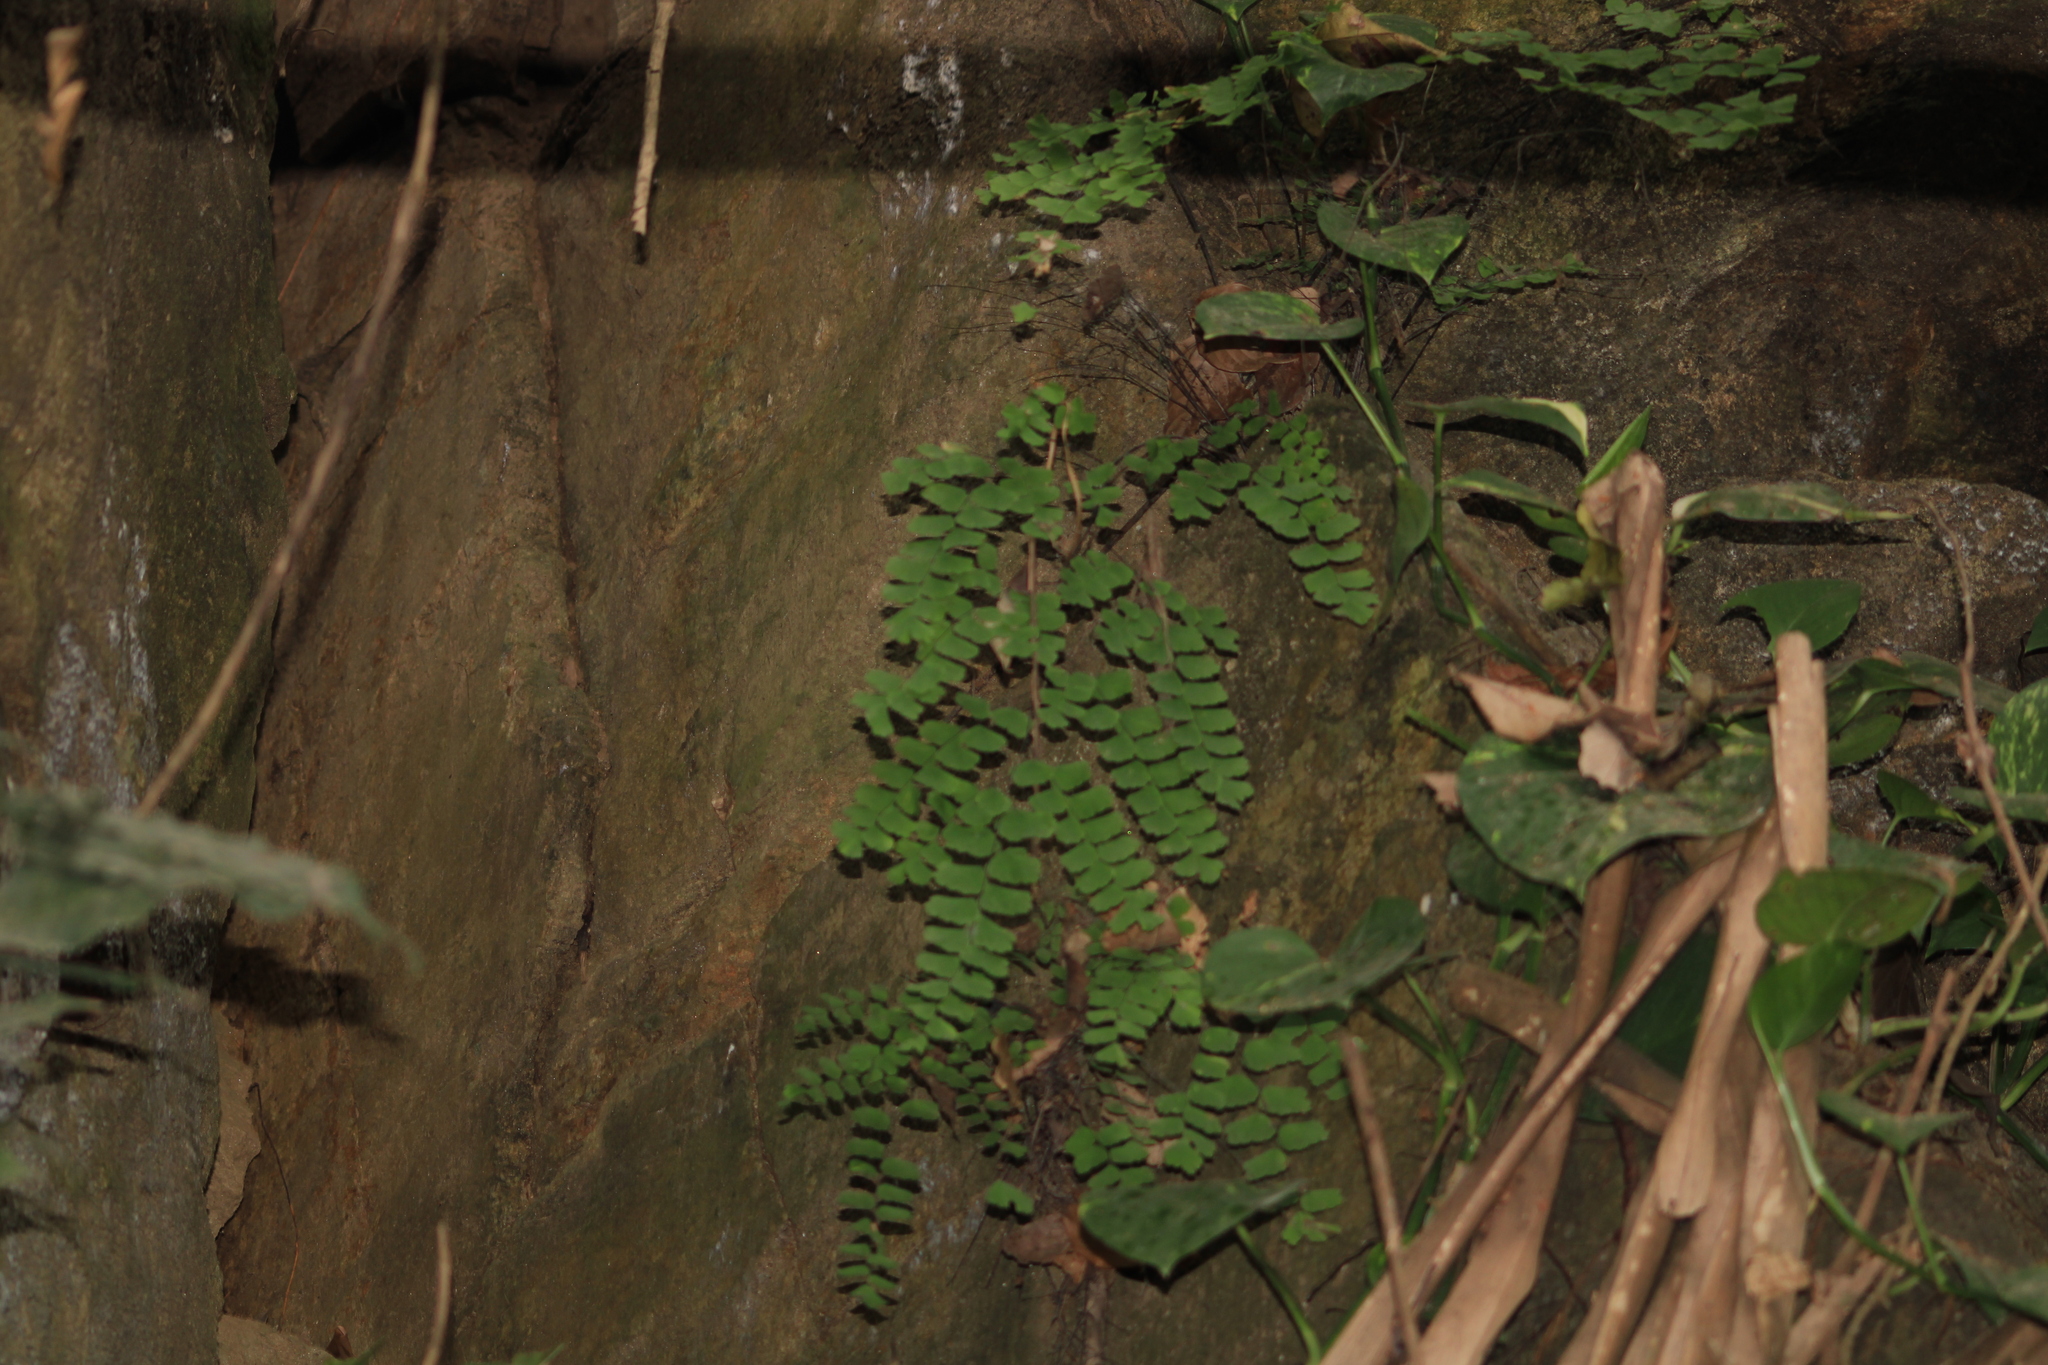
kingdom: Plantae
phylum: Tracheophyta
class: Polypodiopsida
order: Polypodiales
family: Pteridaceae
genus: Adiantum
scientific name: Adiantum amplum
